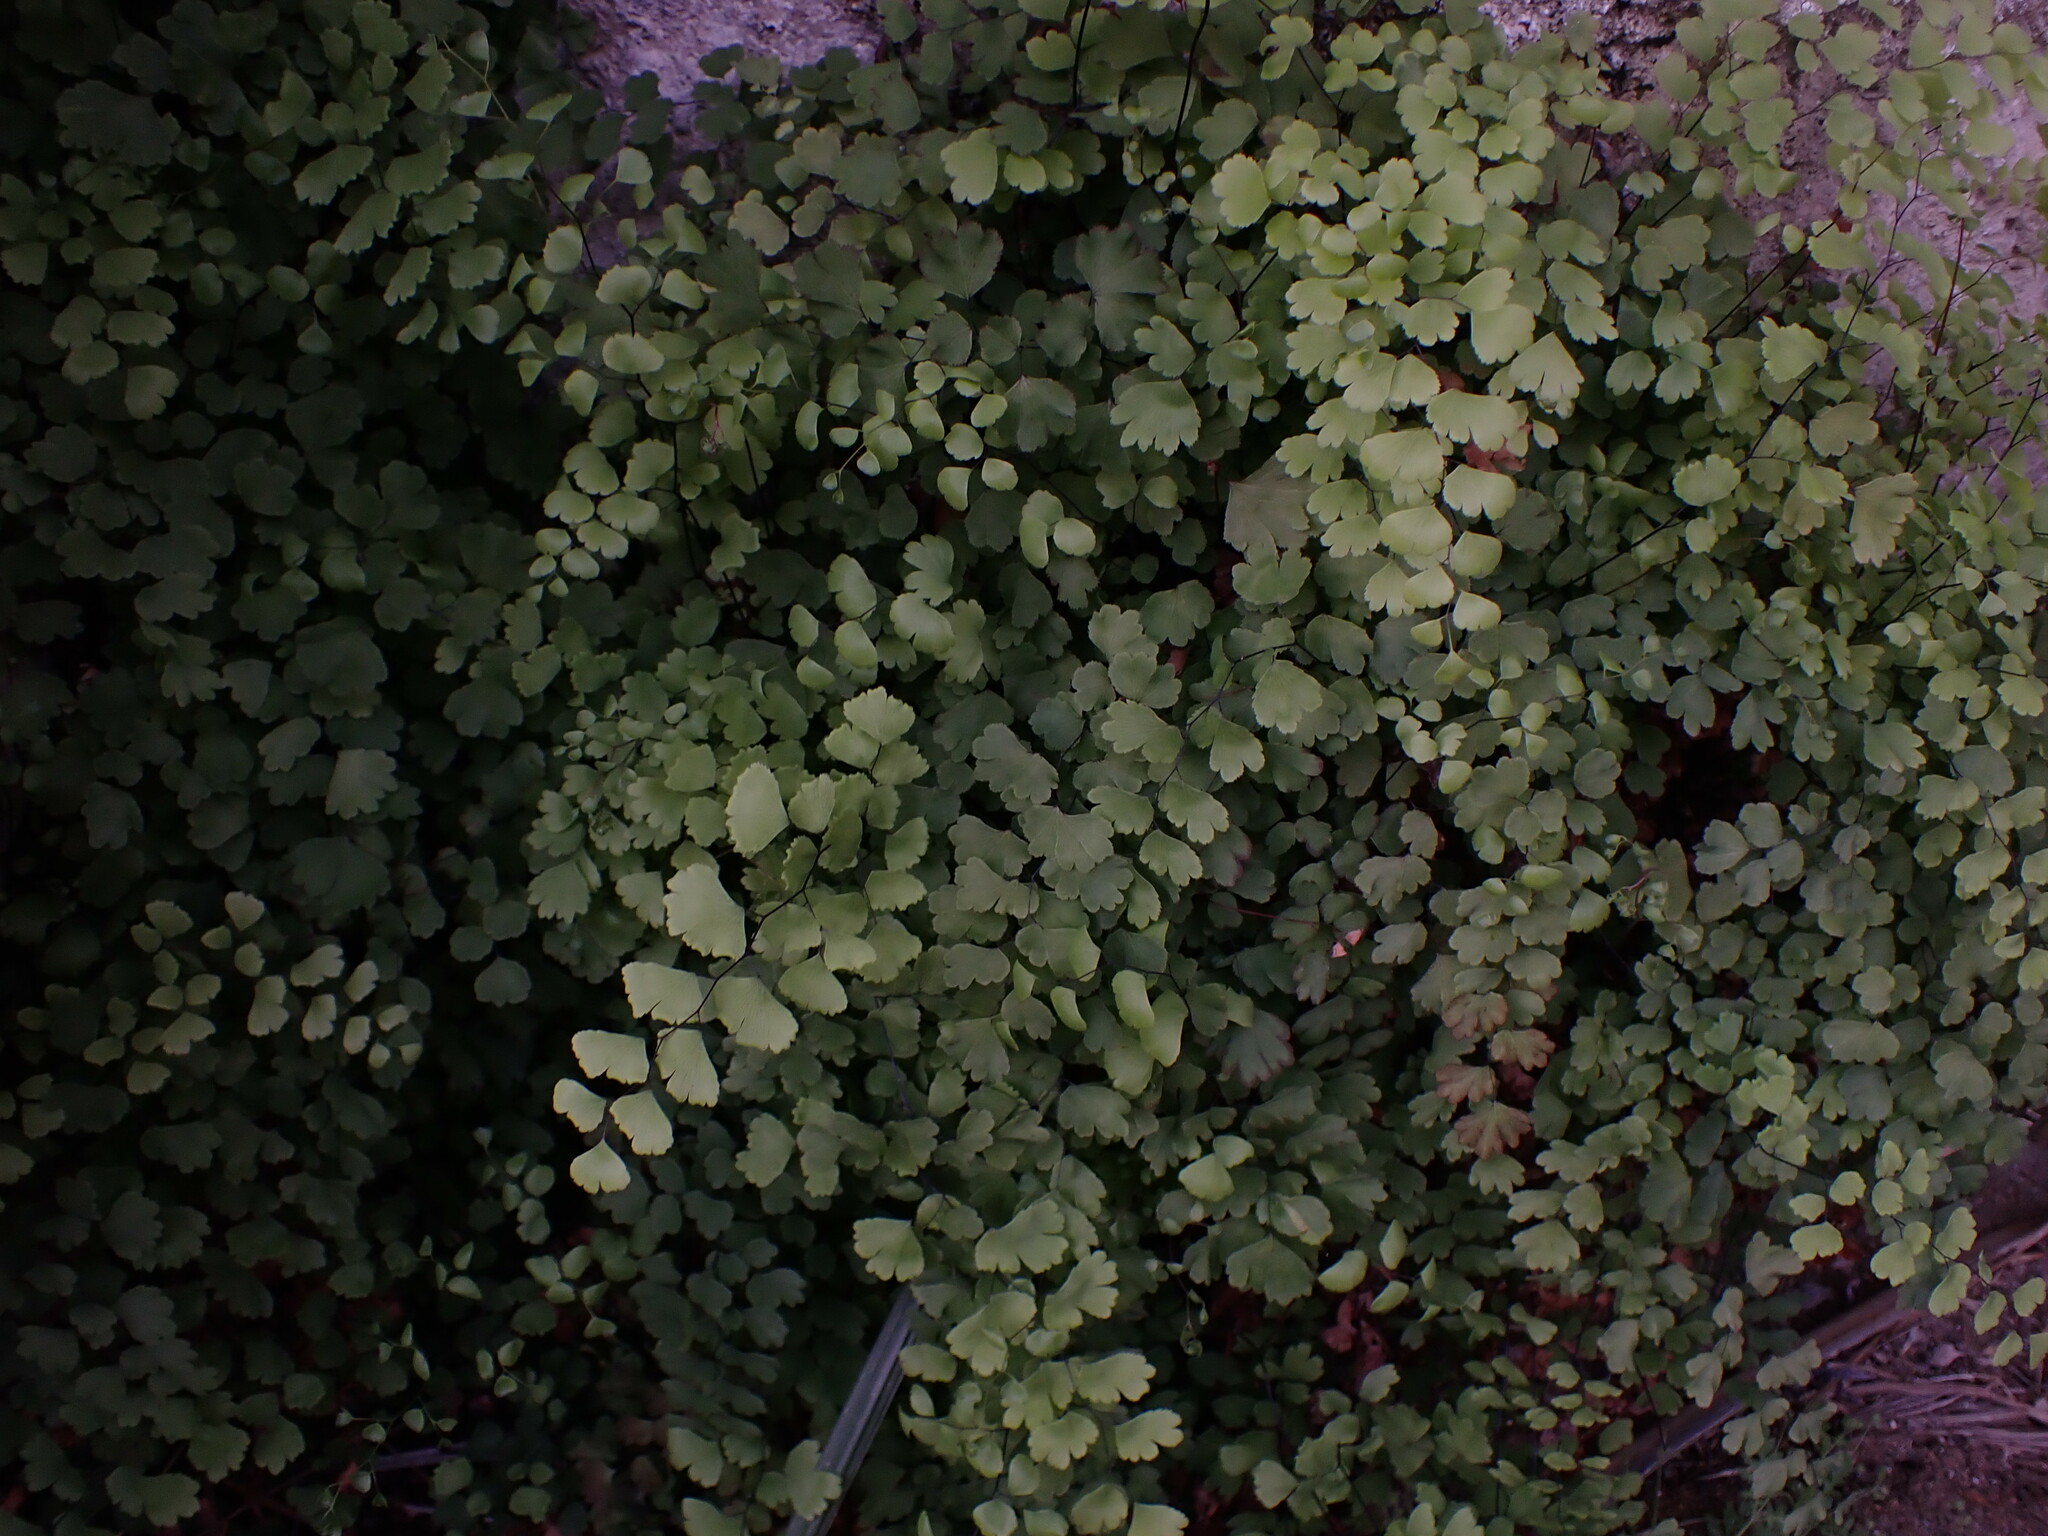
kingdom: Plantae
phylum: Tracheophyta
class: Polypodiopsida
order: Polypodiales
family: Pteridaceae
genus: Adiantum
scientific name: Adiantum capillus-veneris
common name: Maidenhair fern
